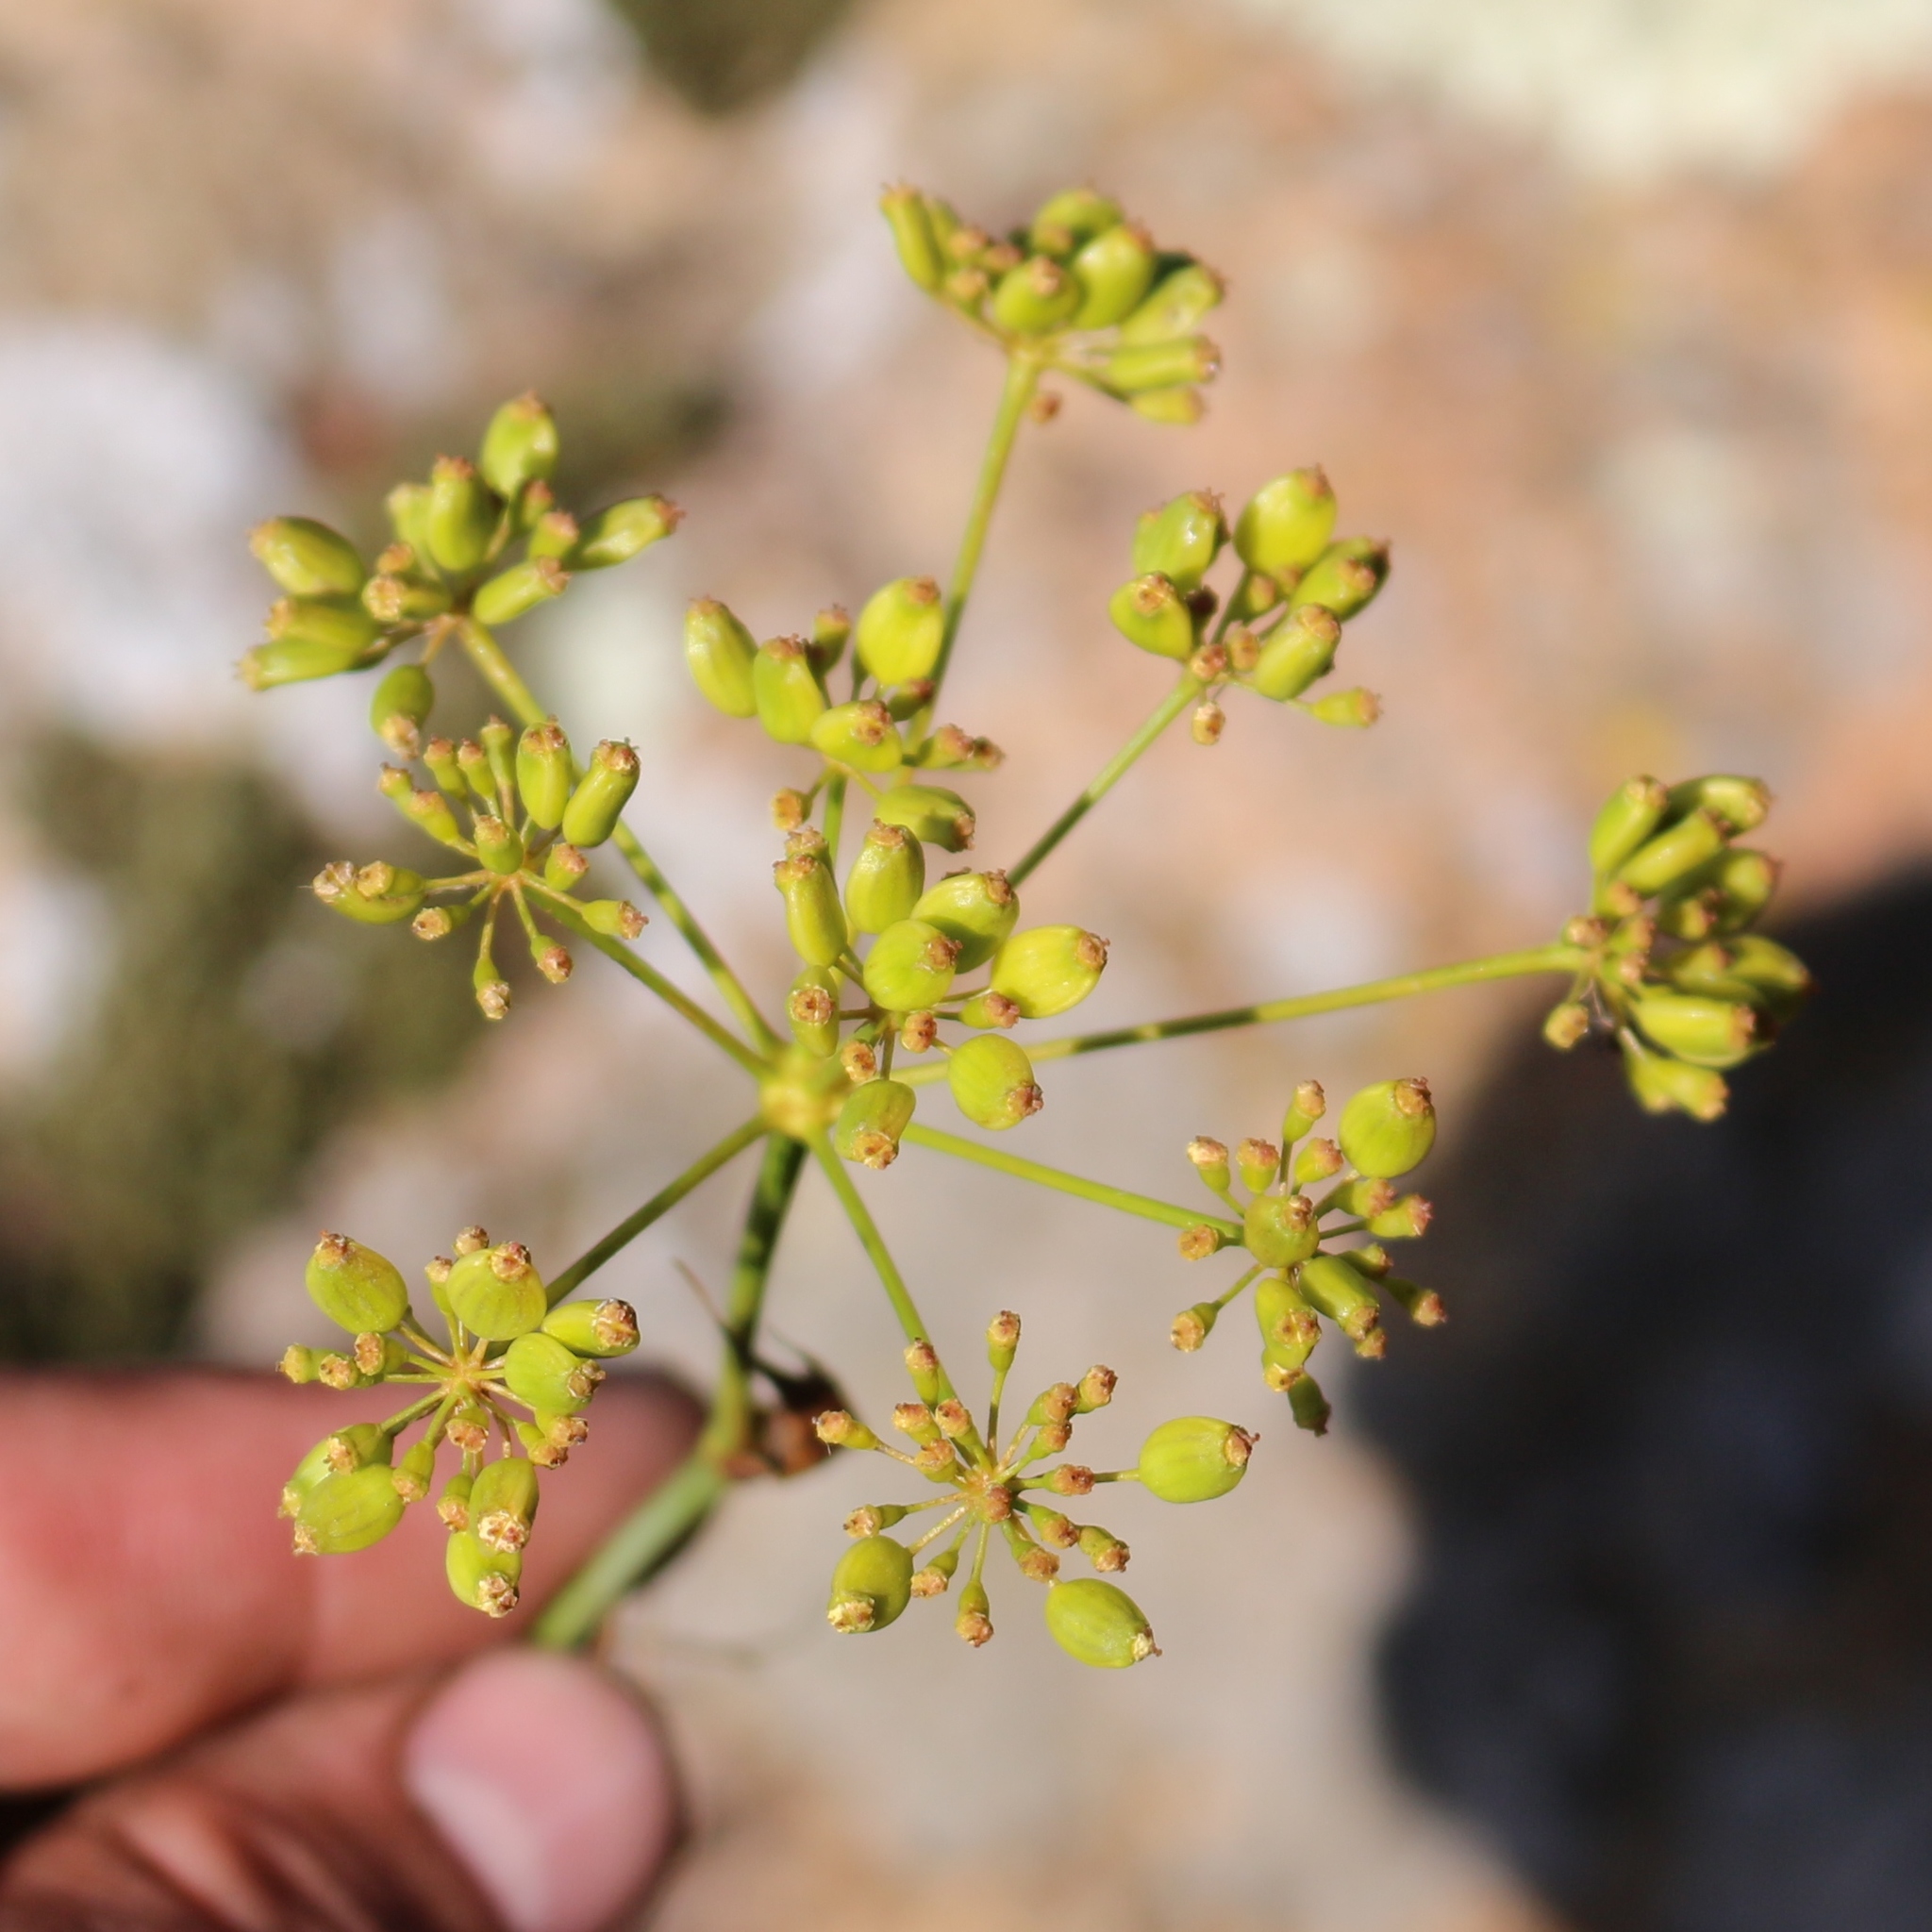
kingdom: Plantae
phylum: Tracheophyta
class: Magnoliopsida
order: Apiales
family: Apiaceae
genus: Peucedanum
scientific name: Peucedanum longifolium
